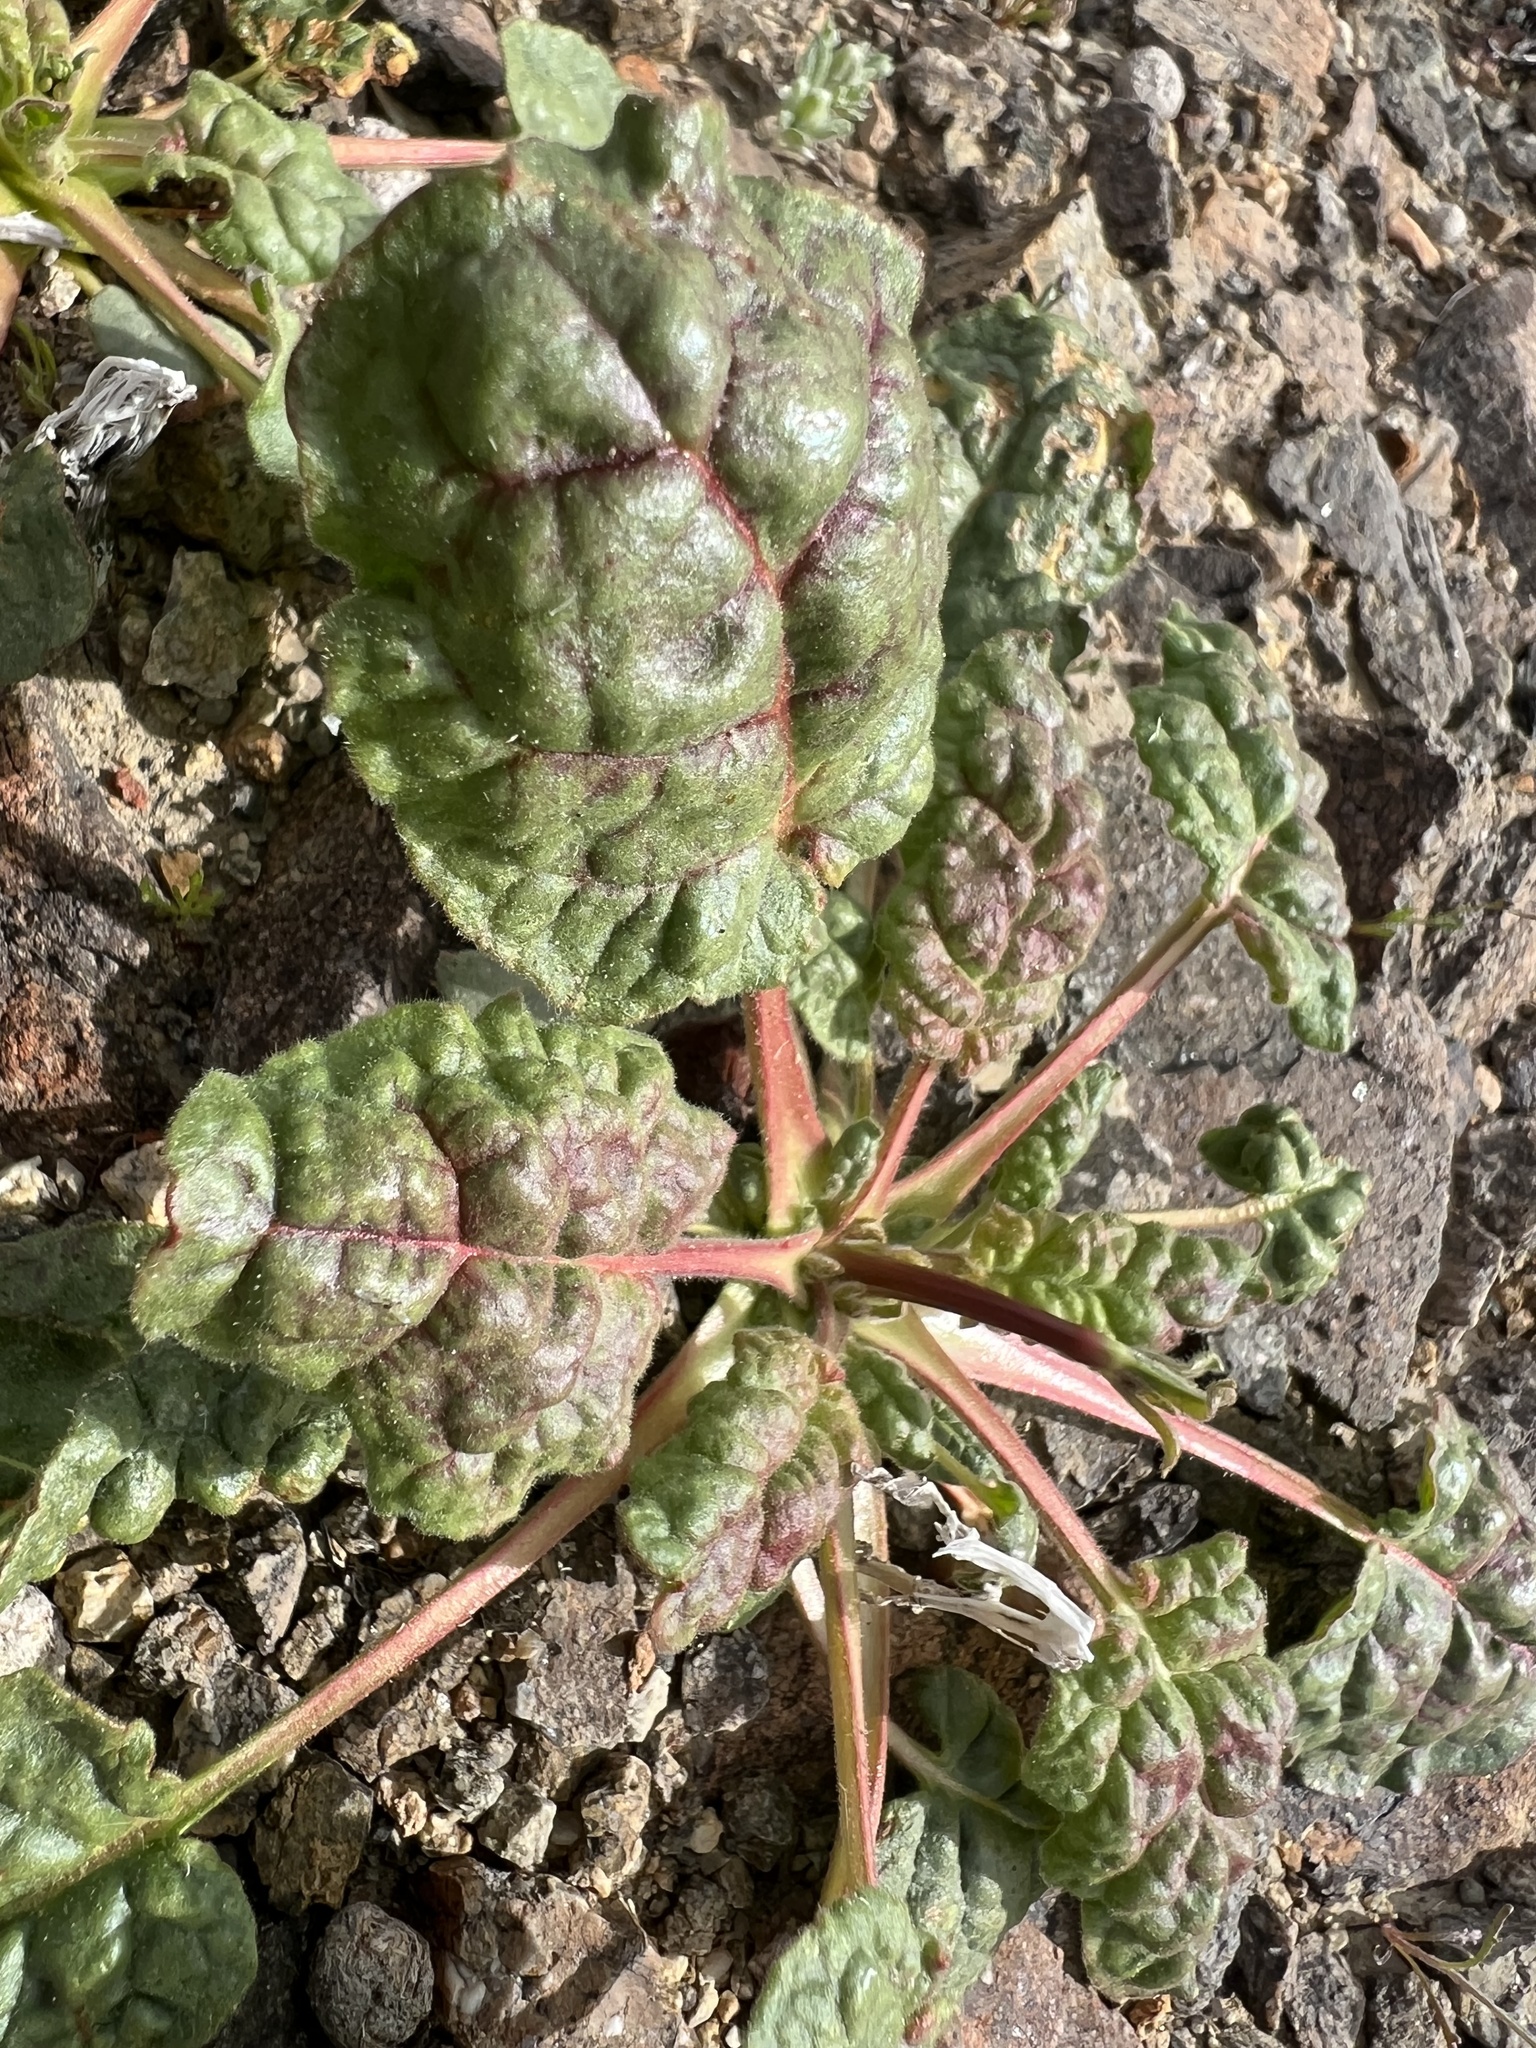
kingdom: Plantae
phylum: Tracheophyta
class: Magnoliopsida
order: Caryophyllales
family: Polygonaceae
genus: Eriogonum
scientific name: Eriogonum inflatum
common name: Desert trumpet
